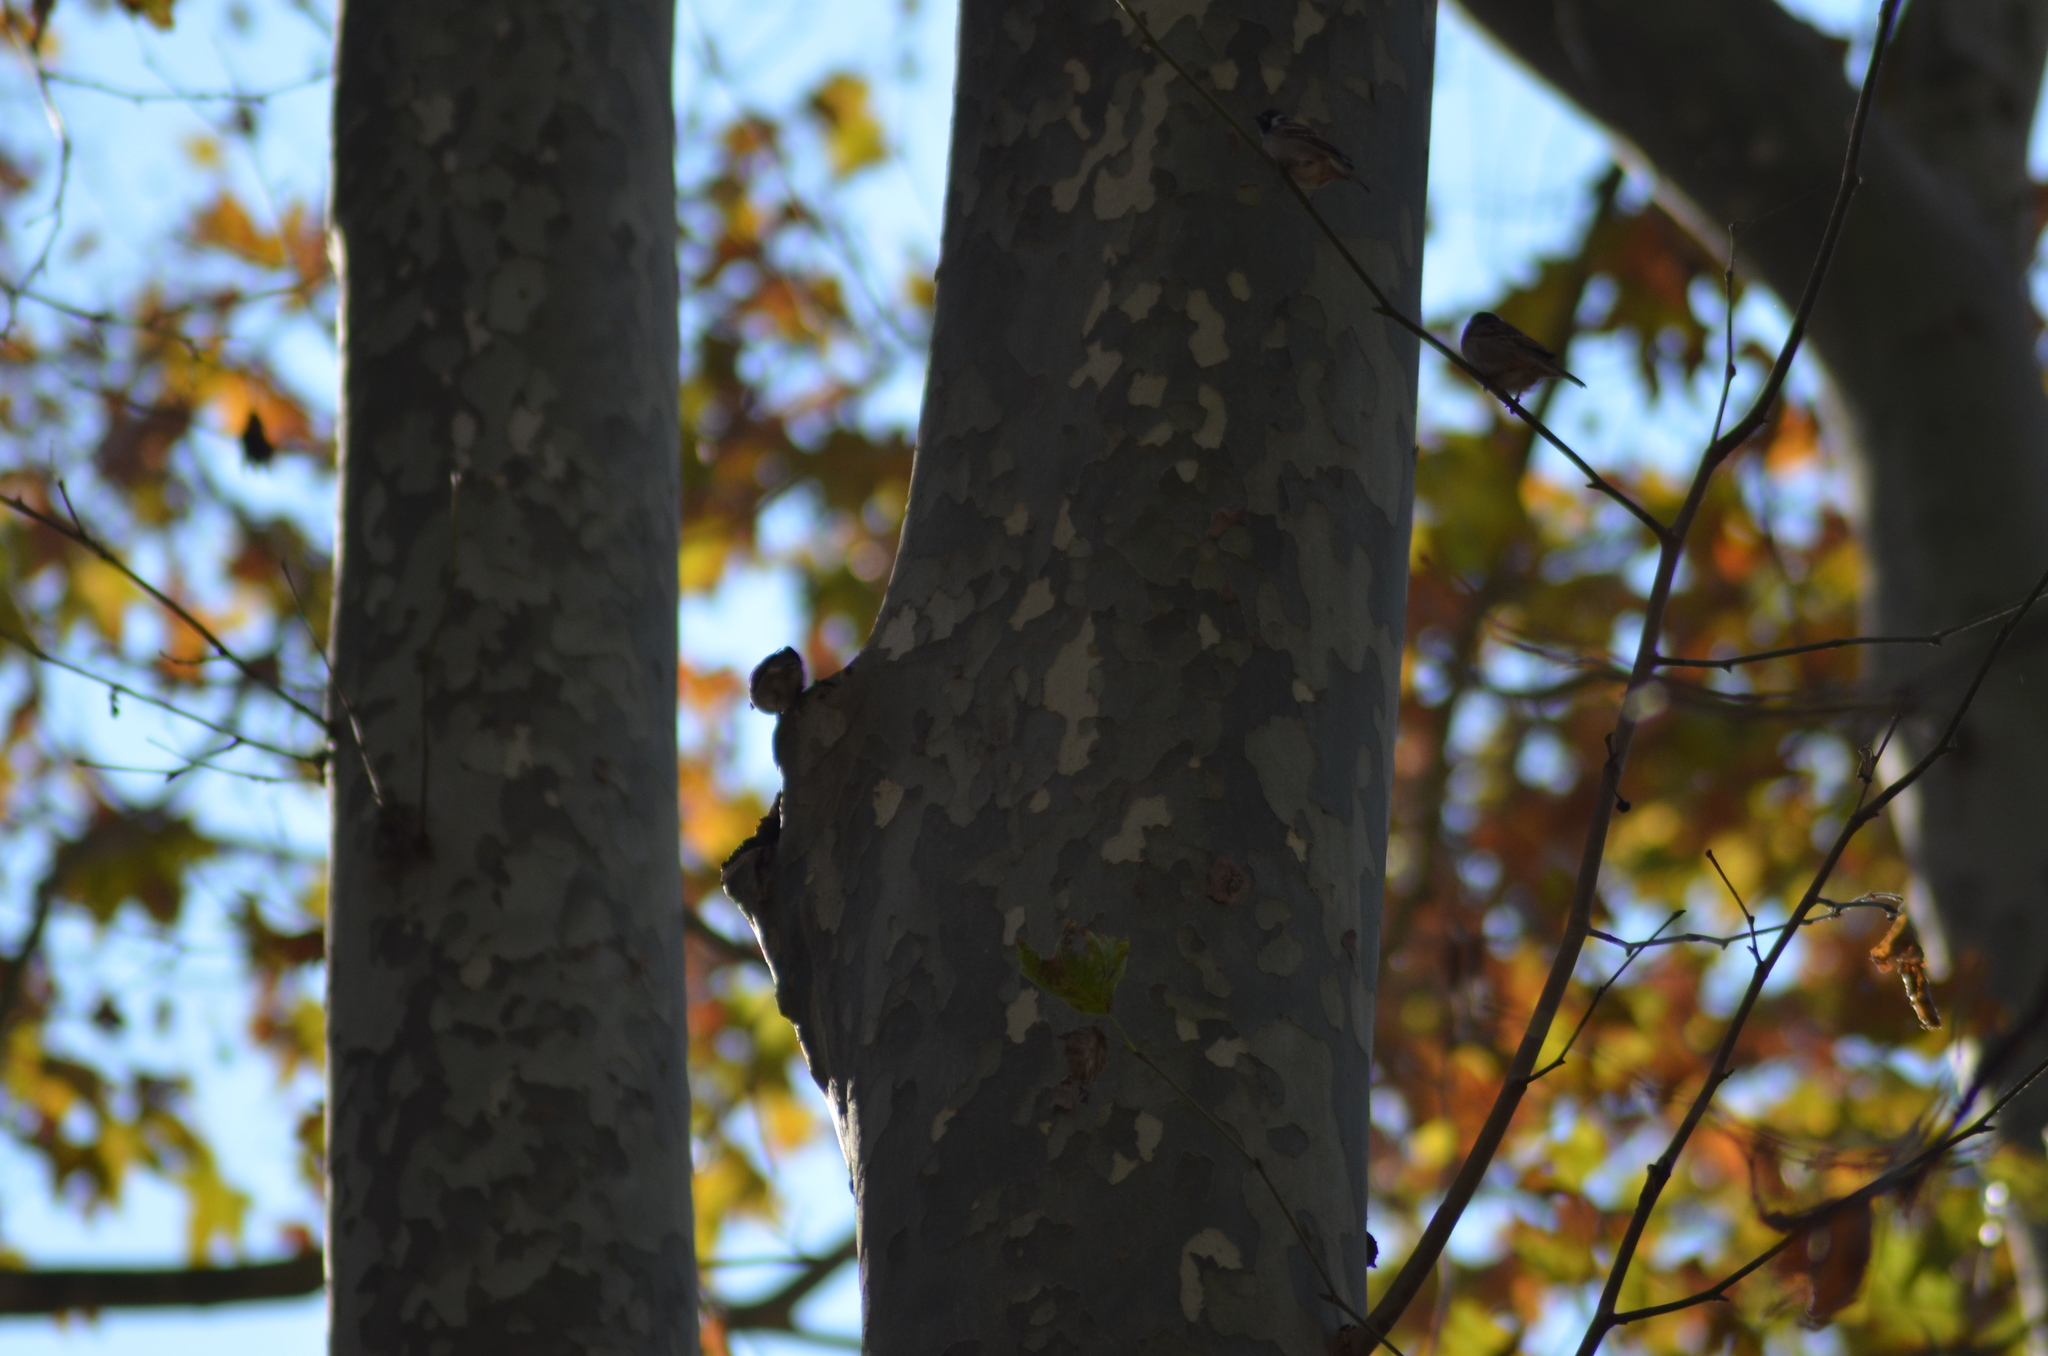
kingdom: Animalia
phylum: Chordata
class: Aves
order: Passeriformes
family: Passeridae
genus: Passer
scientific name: Passer montanus
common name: Eurasian tree sparrow
